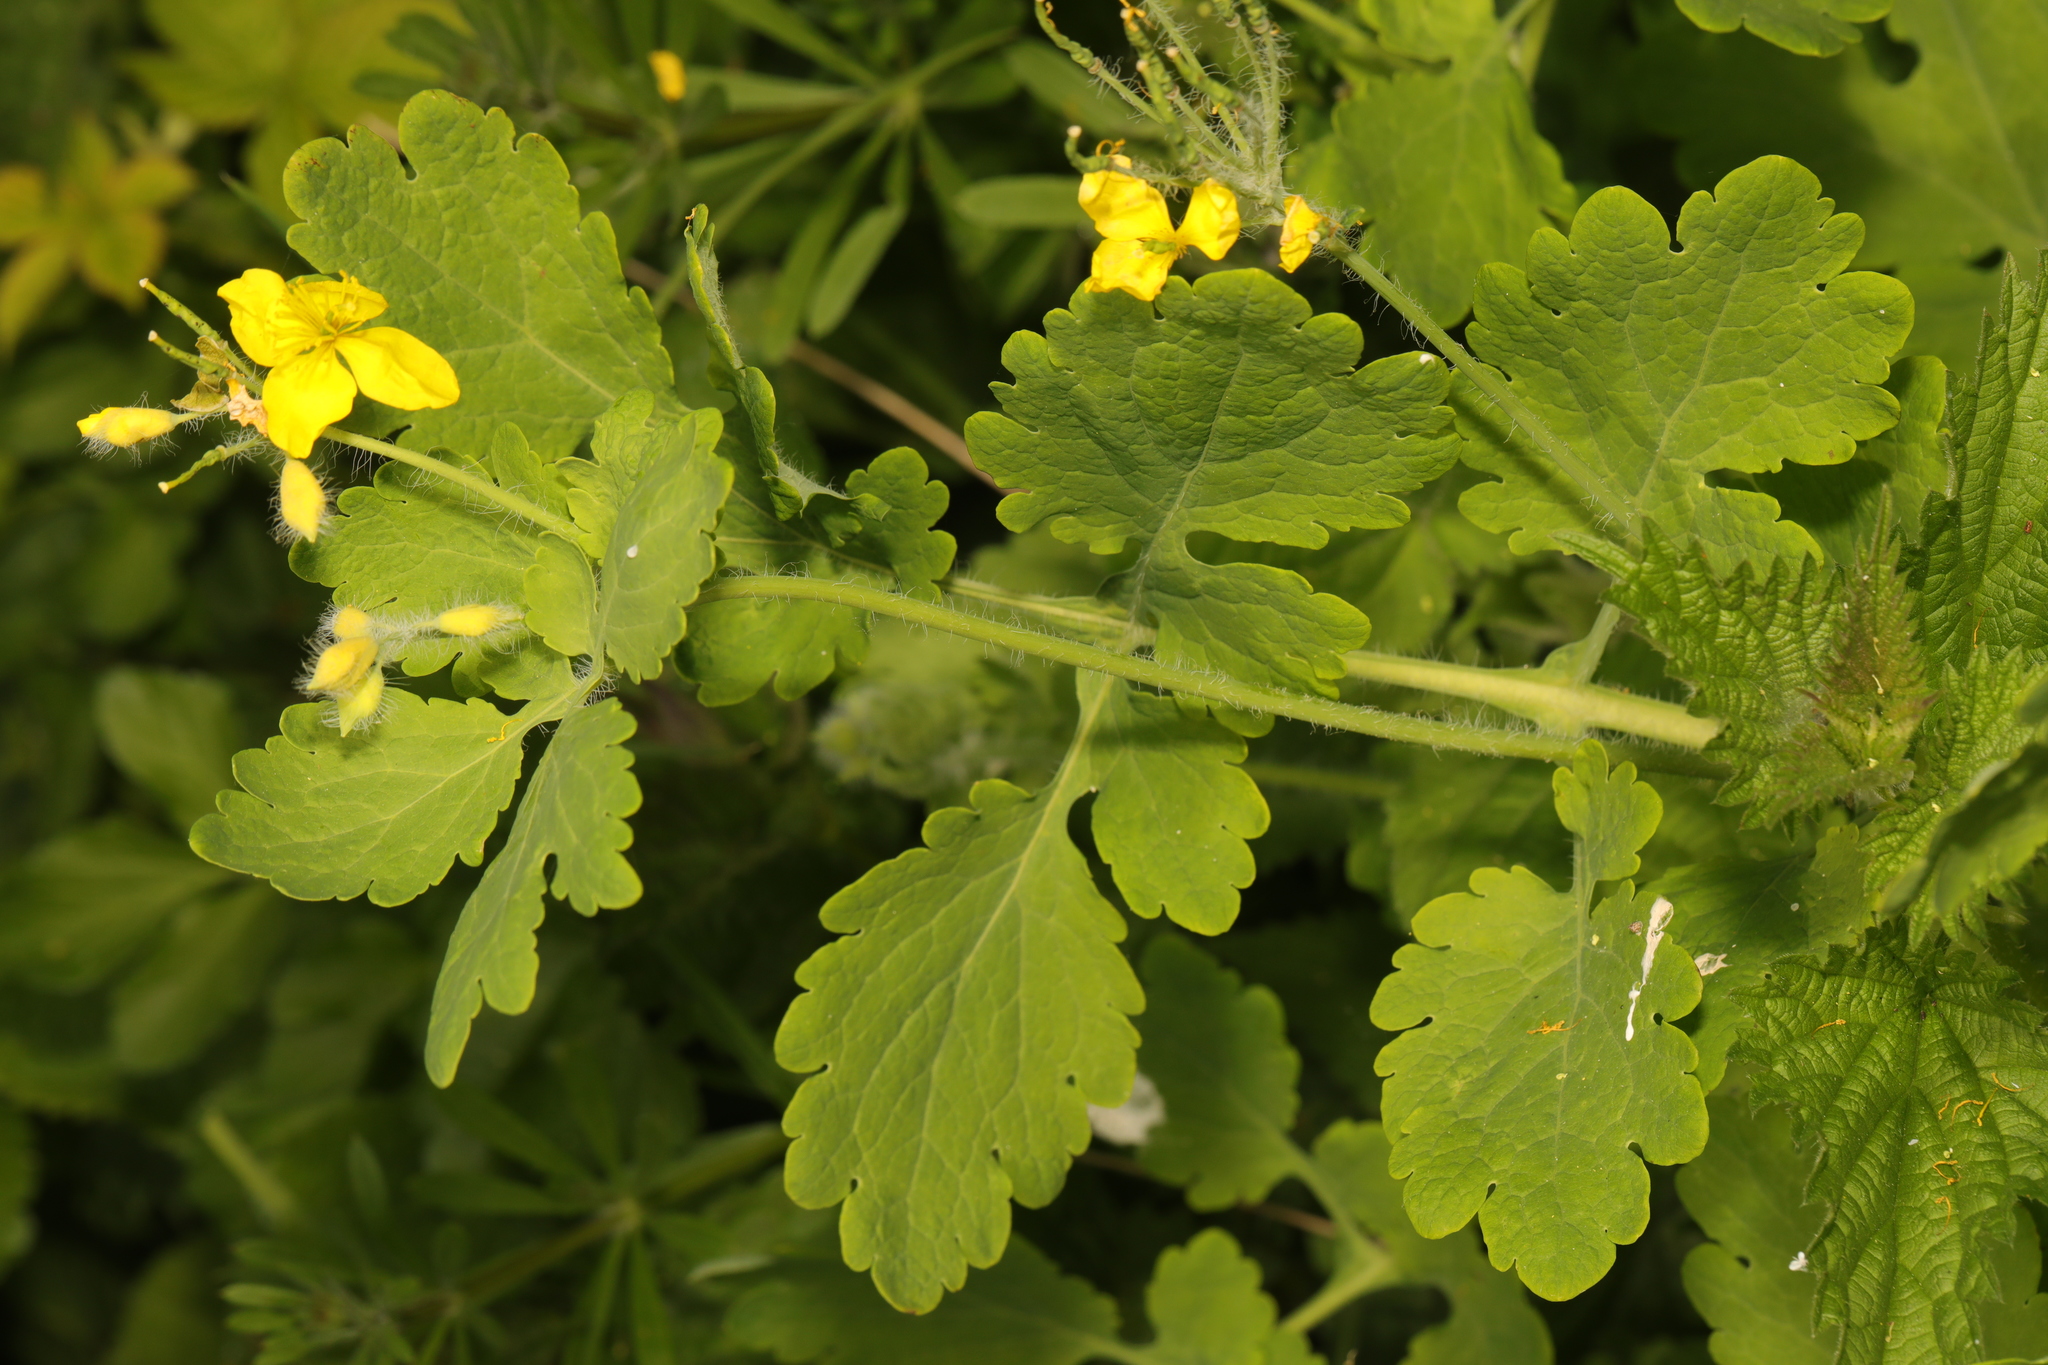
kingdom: Plantae
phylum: Tracheophyta
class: Magnoliopsida
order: Ranunculales
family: Papaveraceae
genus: Chelidonium
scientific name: Chelidonium majus
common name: Greater celandine
